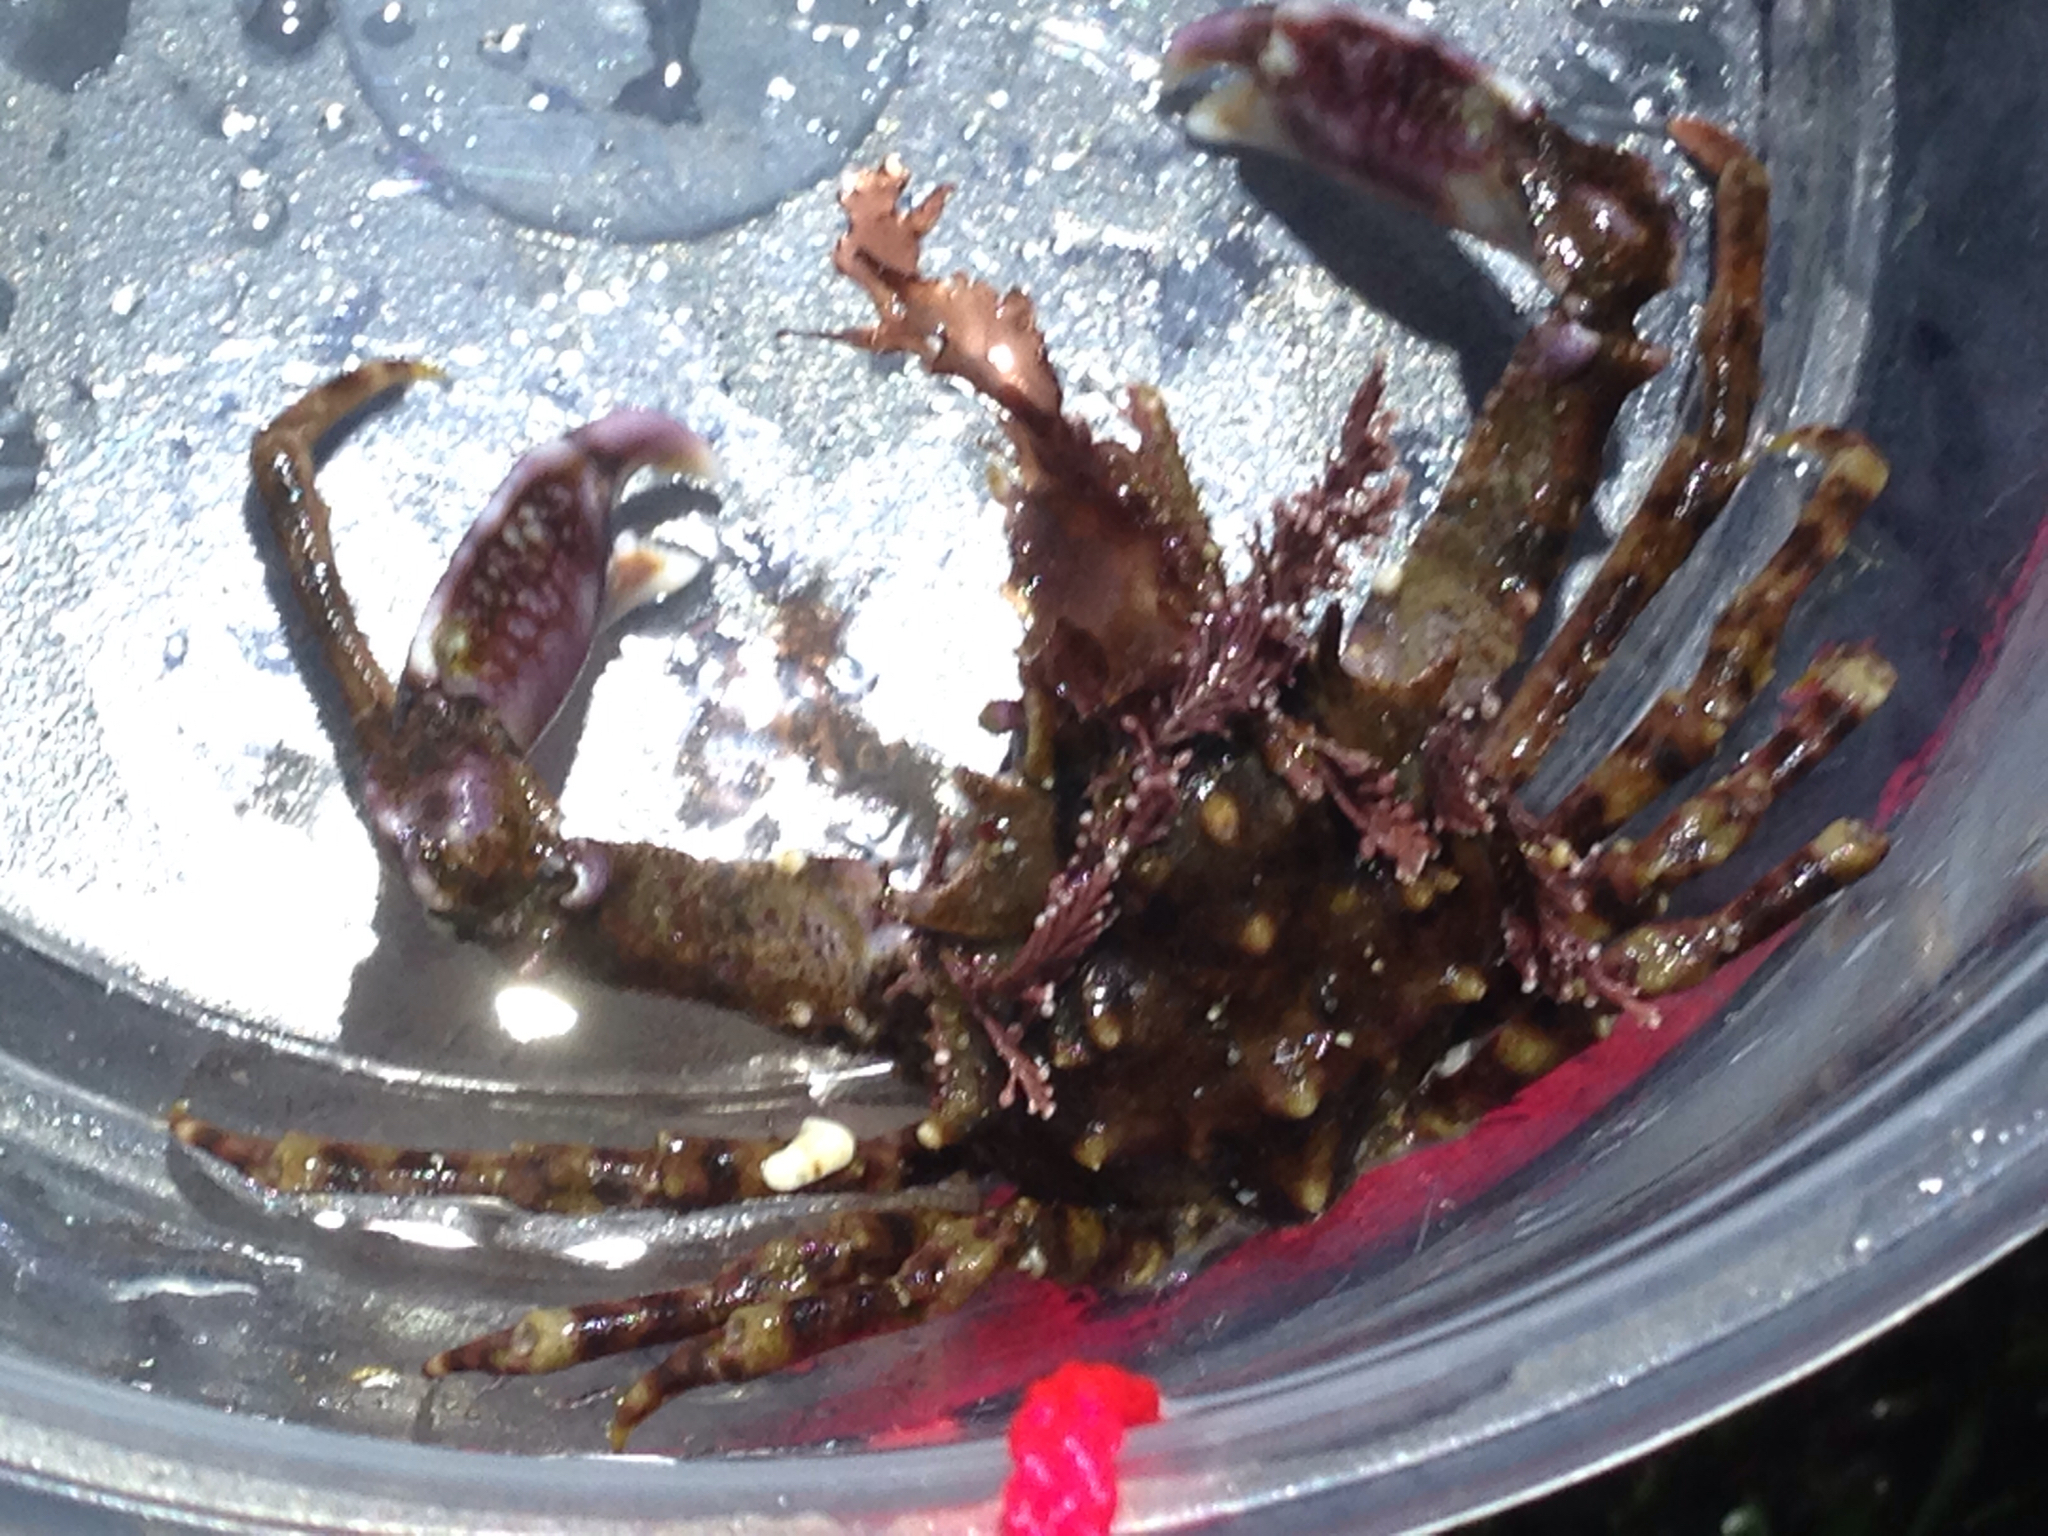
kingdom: Animalia
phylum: Arthropoda
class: Malacostraca
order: Decapoda
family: Epialtidae
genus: Pugettia
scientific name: Pugettia richii
